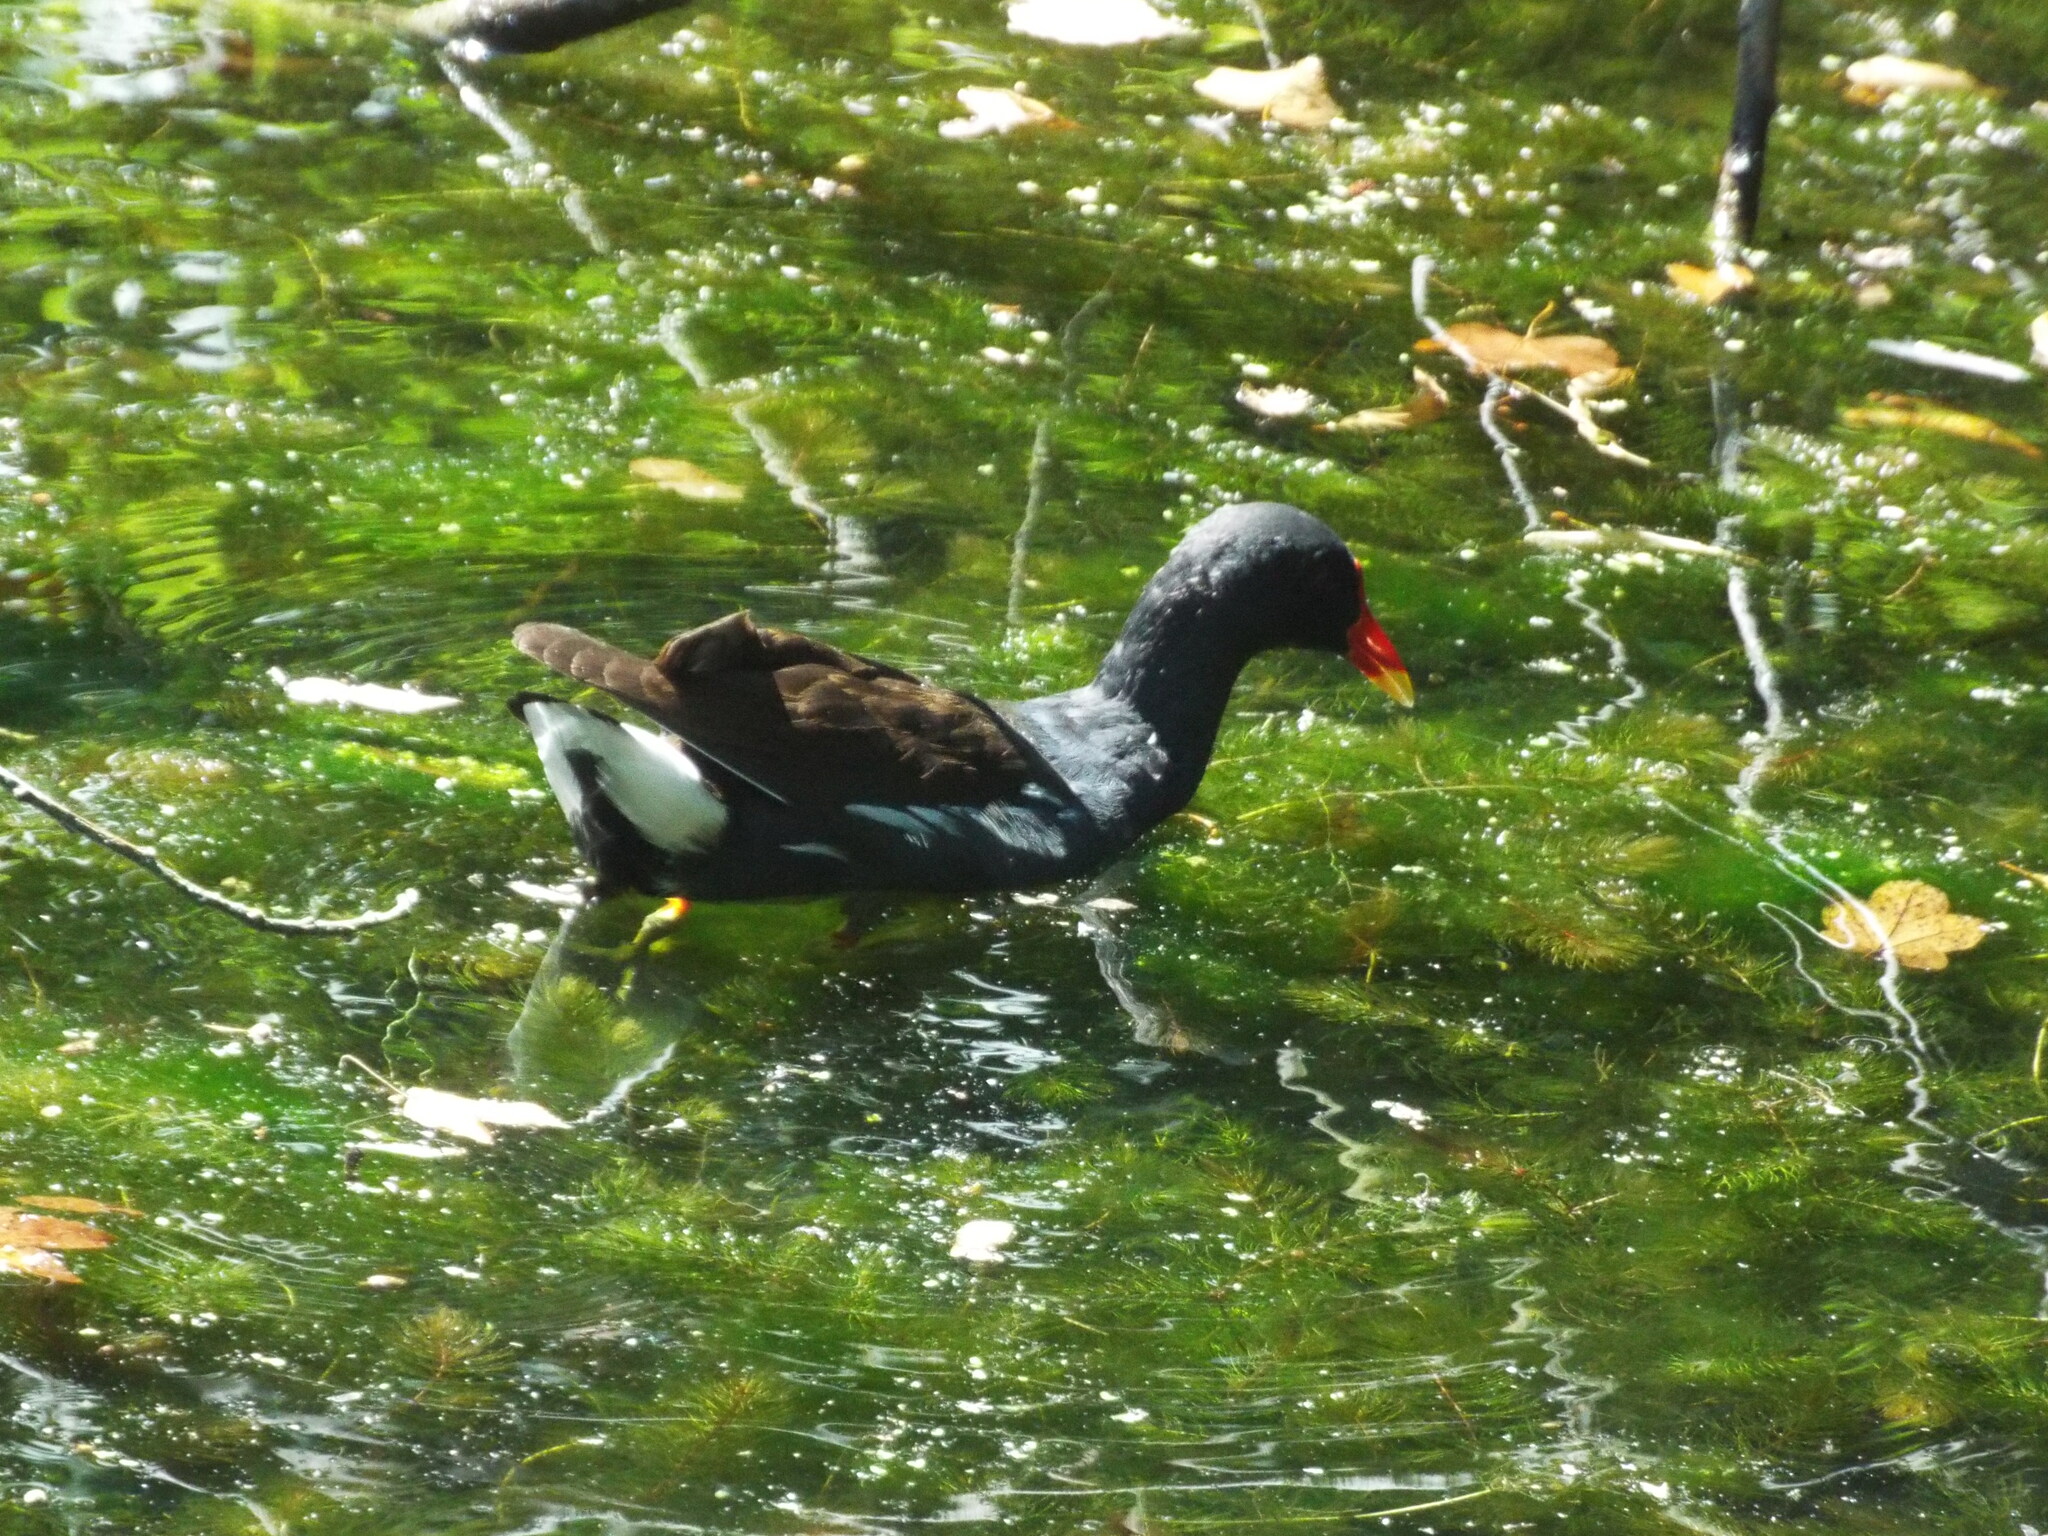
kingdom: Animalia
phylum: Chordata
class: Aves
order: Gruiformes
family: Rallidae
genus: Gallinula
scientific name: Gallinula chloropus
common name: Common moorhen
